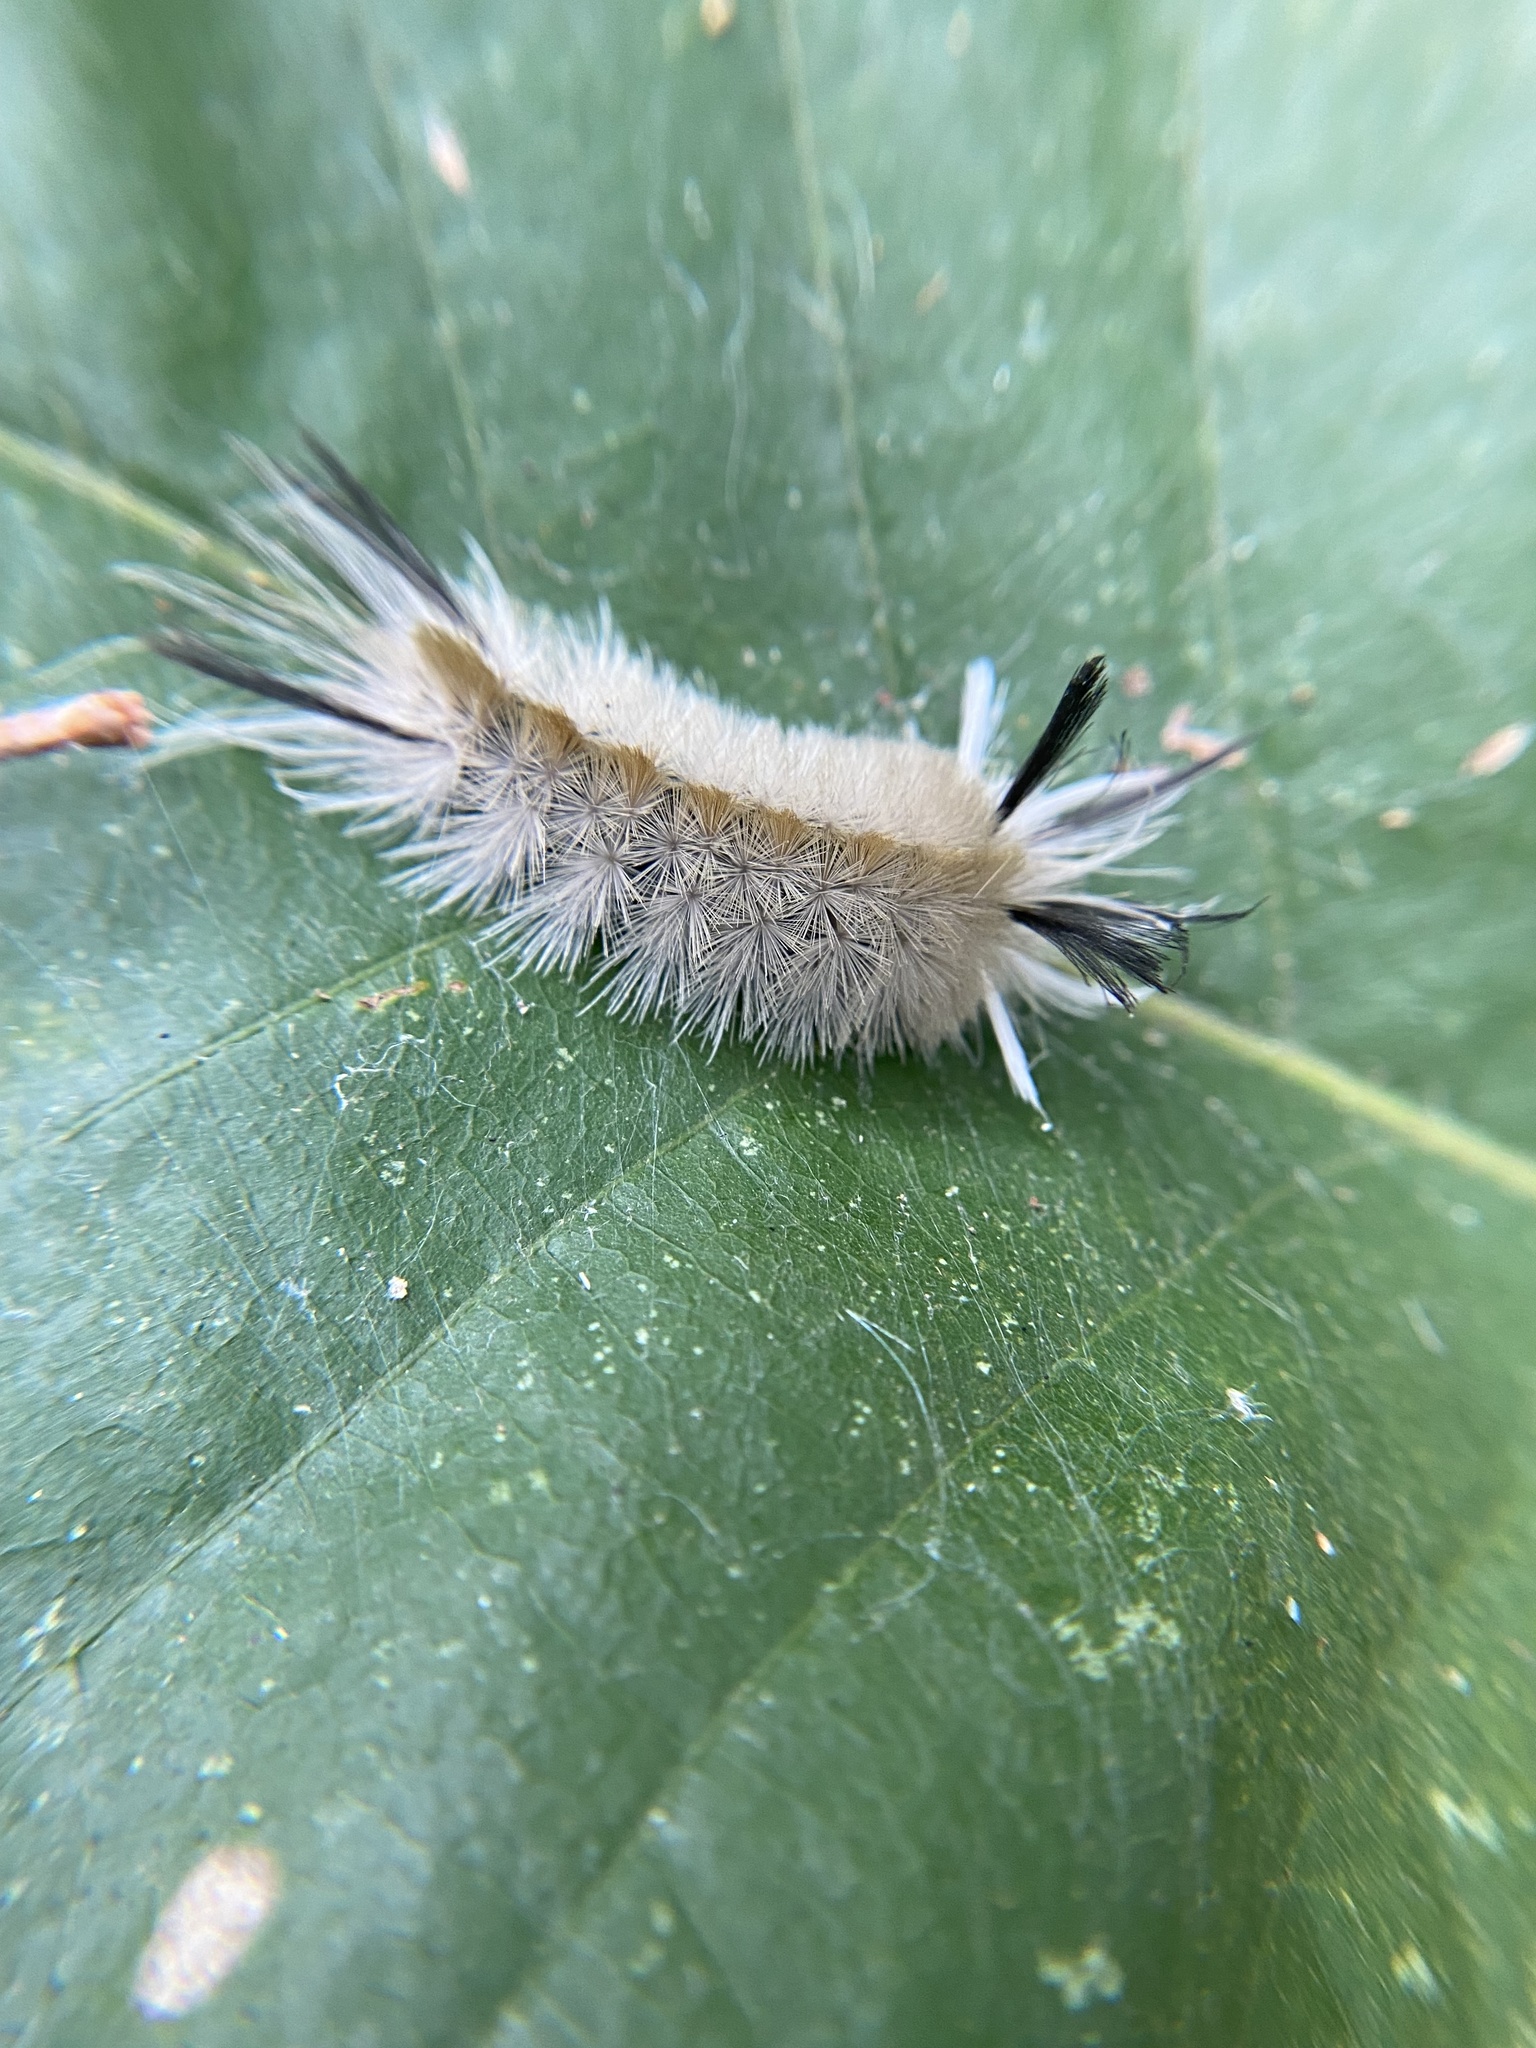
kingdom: Animalia
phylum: Arthropoda
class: Insecta
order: Lepidoptera
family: Erebidae
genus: Halysidota
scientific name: Halysidota tessellaris
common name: Banded tussock moth
